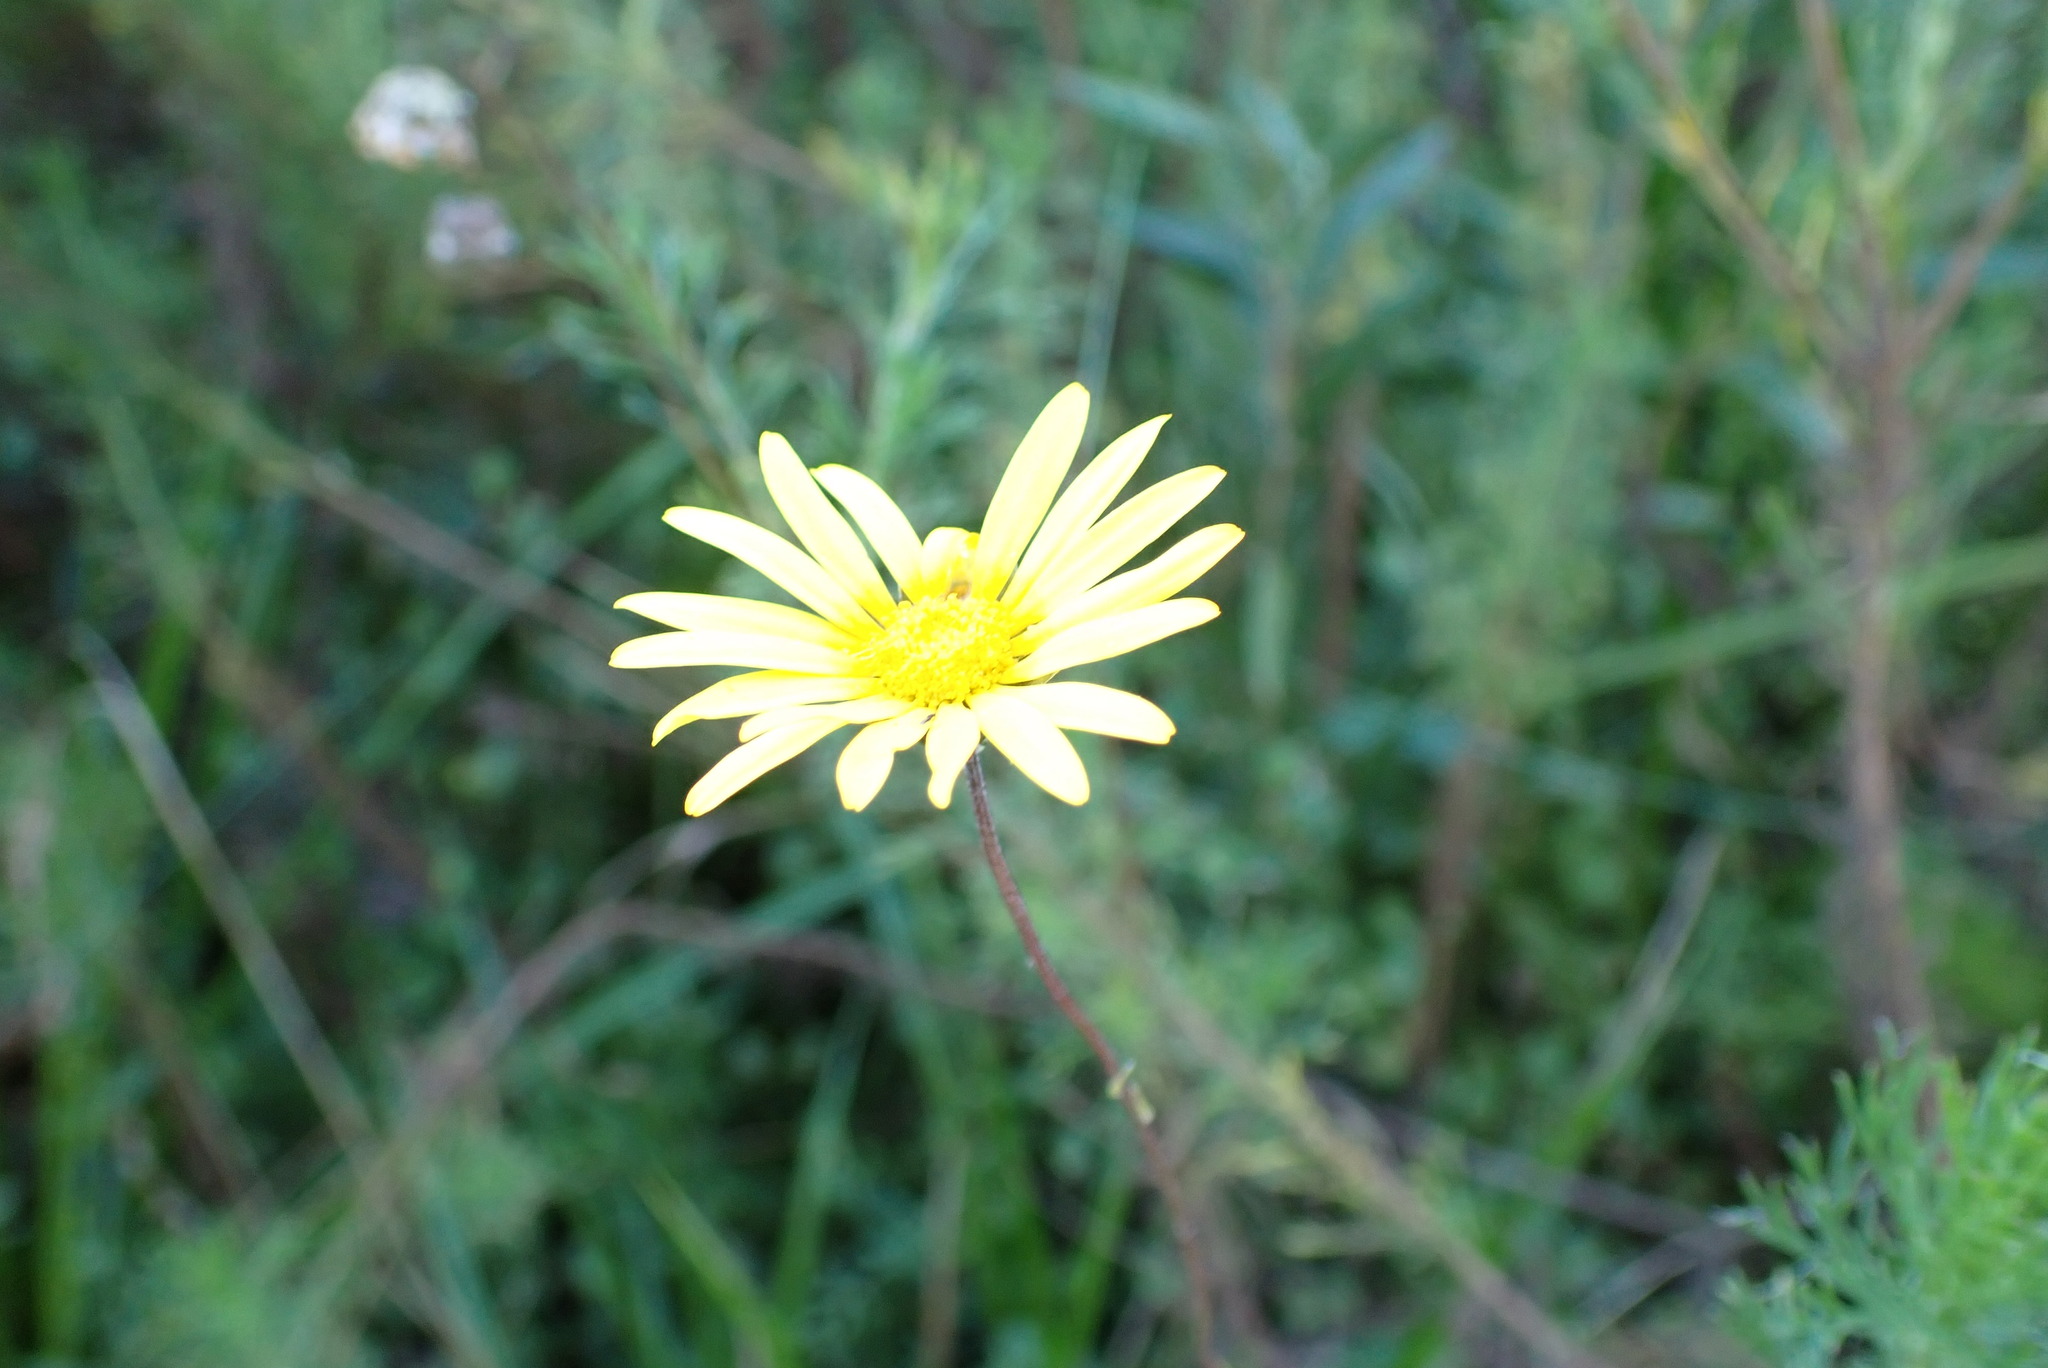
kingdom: Plantae
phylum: Tracheophyta
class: Magnoliopsida
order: Asterales
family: Asteraceae
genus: Ursinia
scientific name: Ursinia anthemoides
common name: Ursinia
